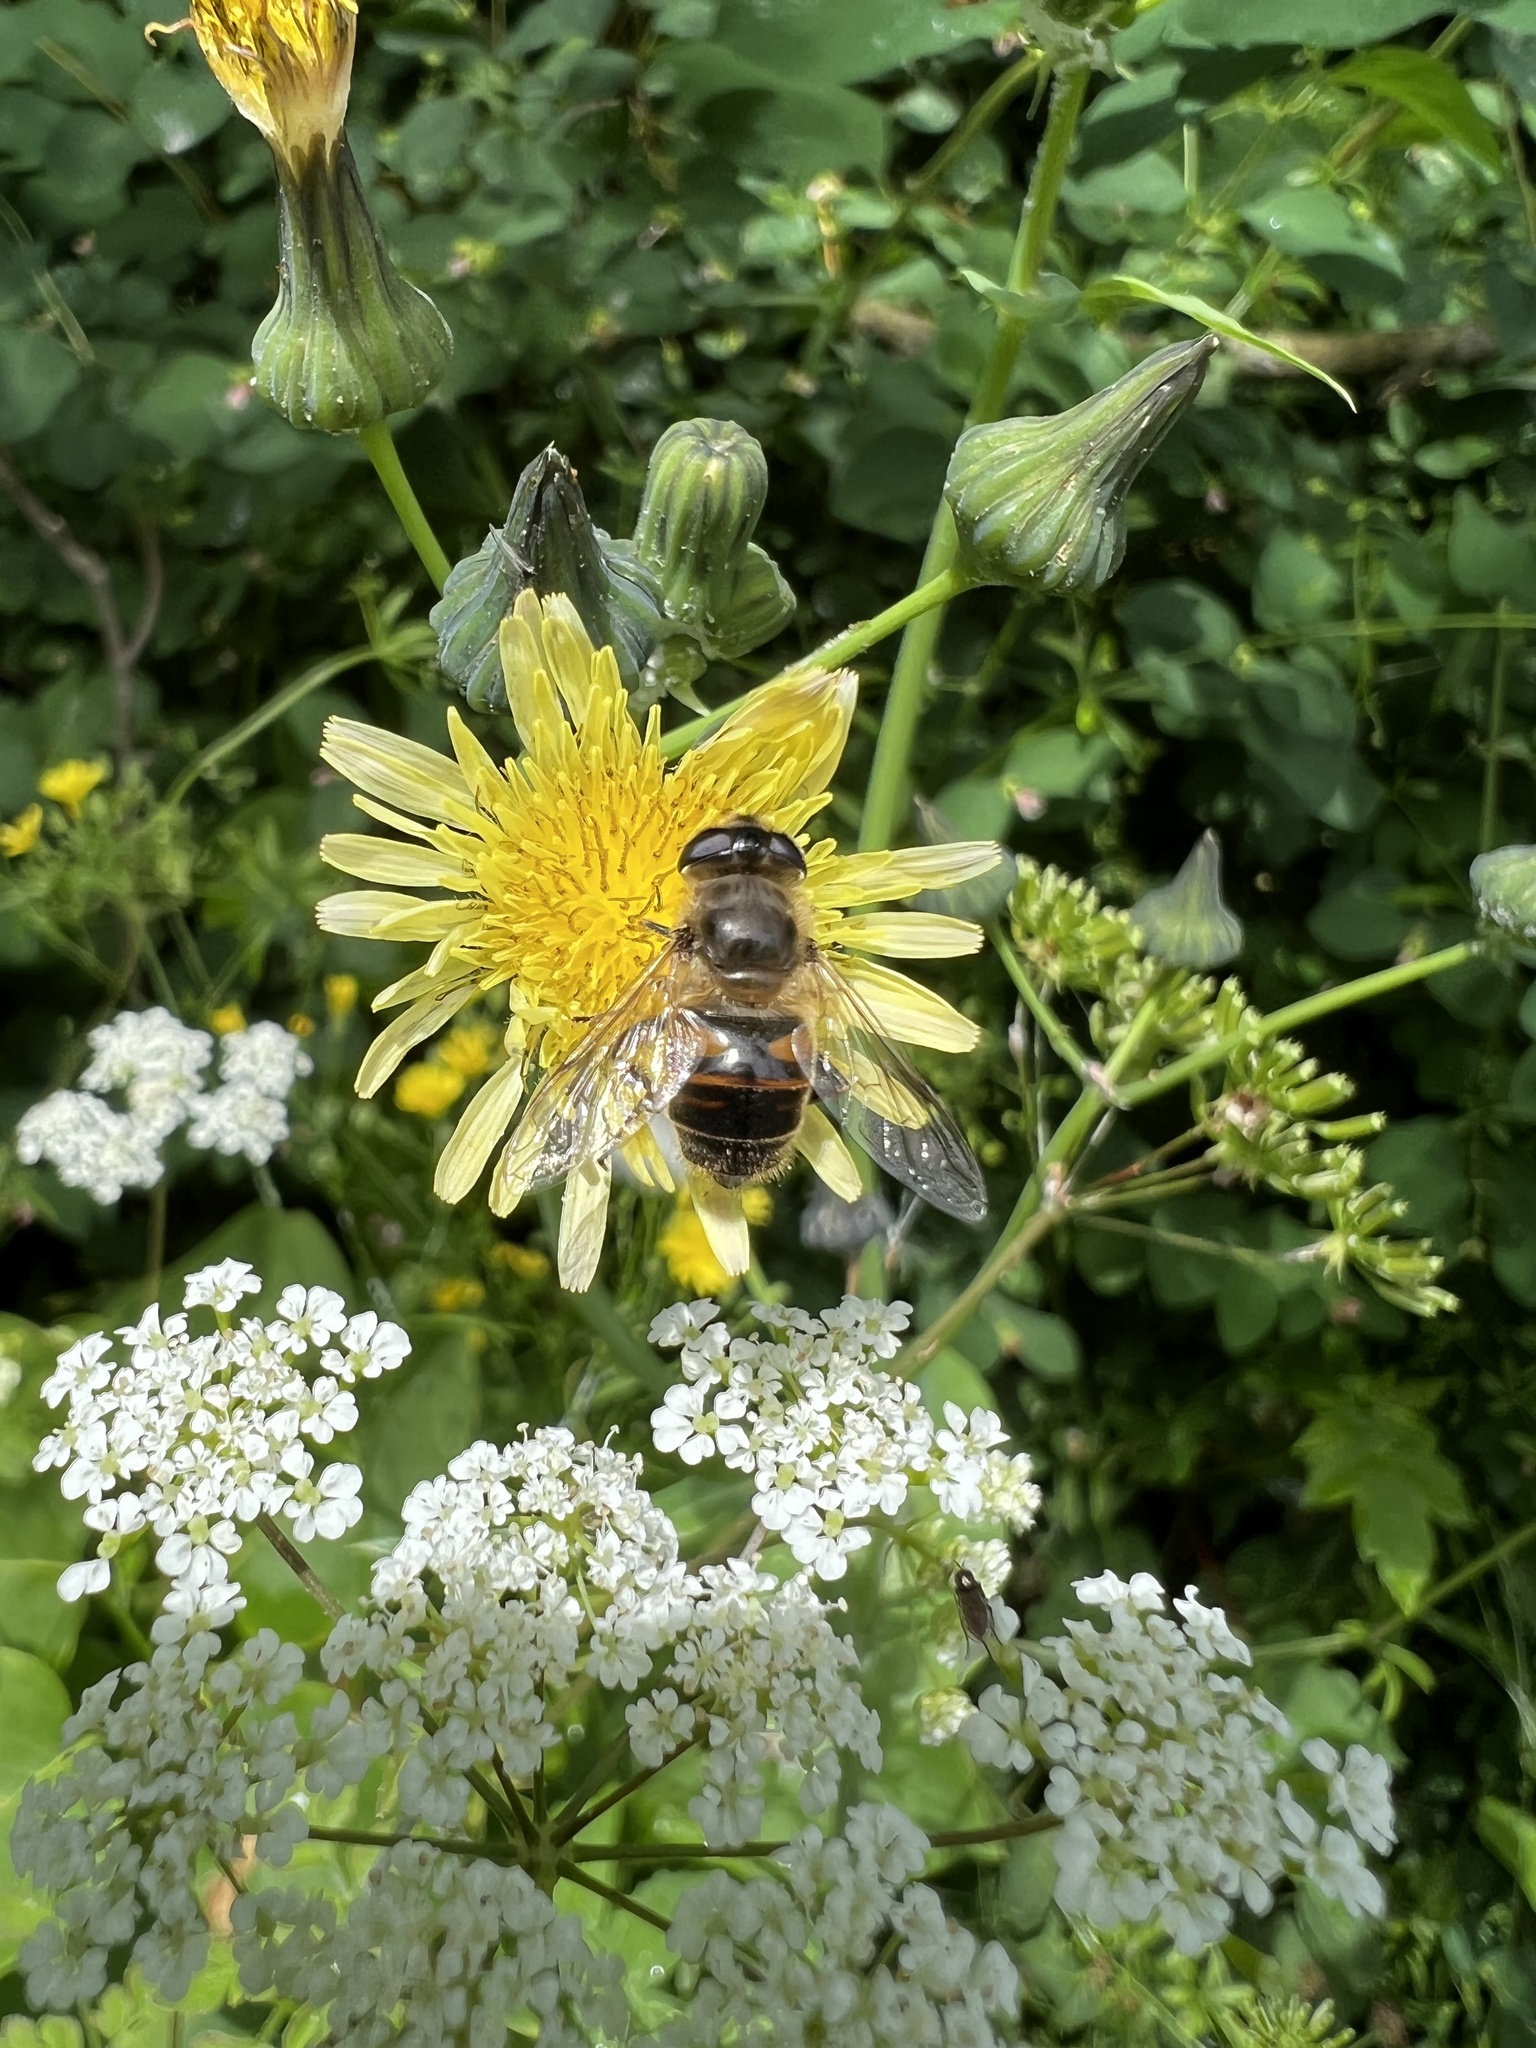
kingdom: Animalia
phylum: Arthropoda
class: Insecta
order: Diptera
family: Syrphidae
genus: Eristalis
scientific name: Eristalis tenax
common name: Drone fly
